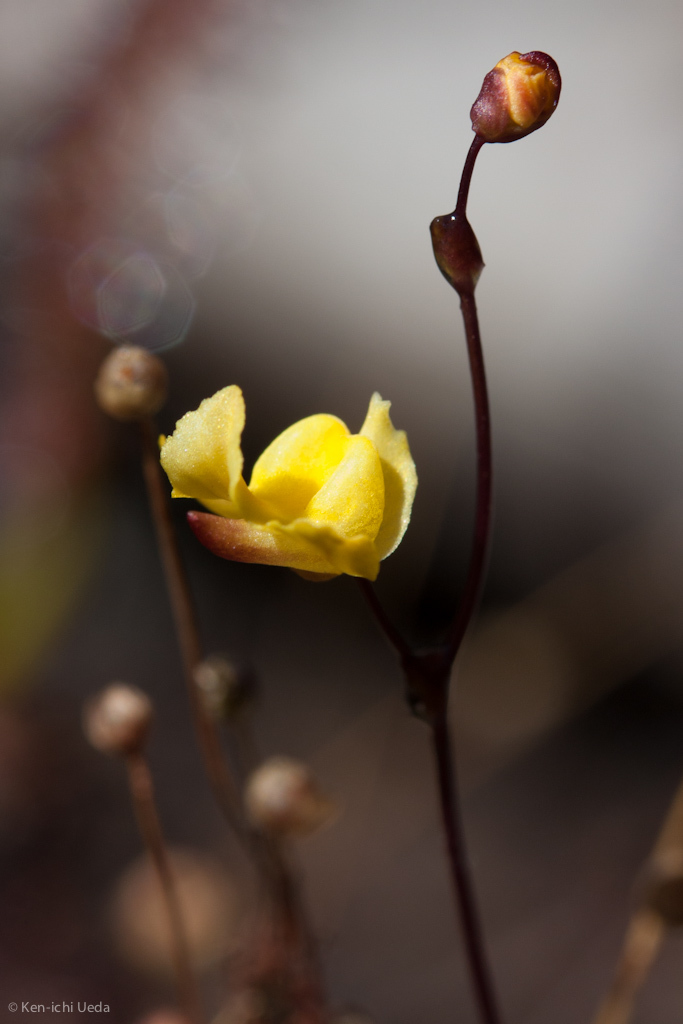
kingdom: Plantae
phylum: Tracheophyta
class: Magnoliopsida
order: Lamiales
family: Lentibulariaceae
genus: Utricularia
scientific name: Utricularia subulata
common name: Tiny bladderwort
